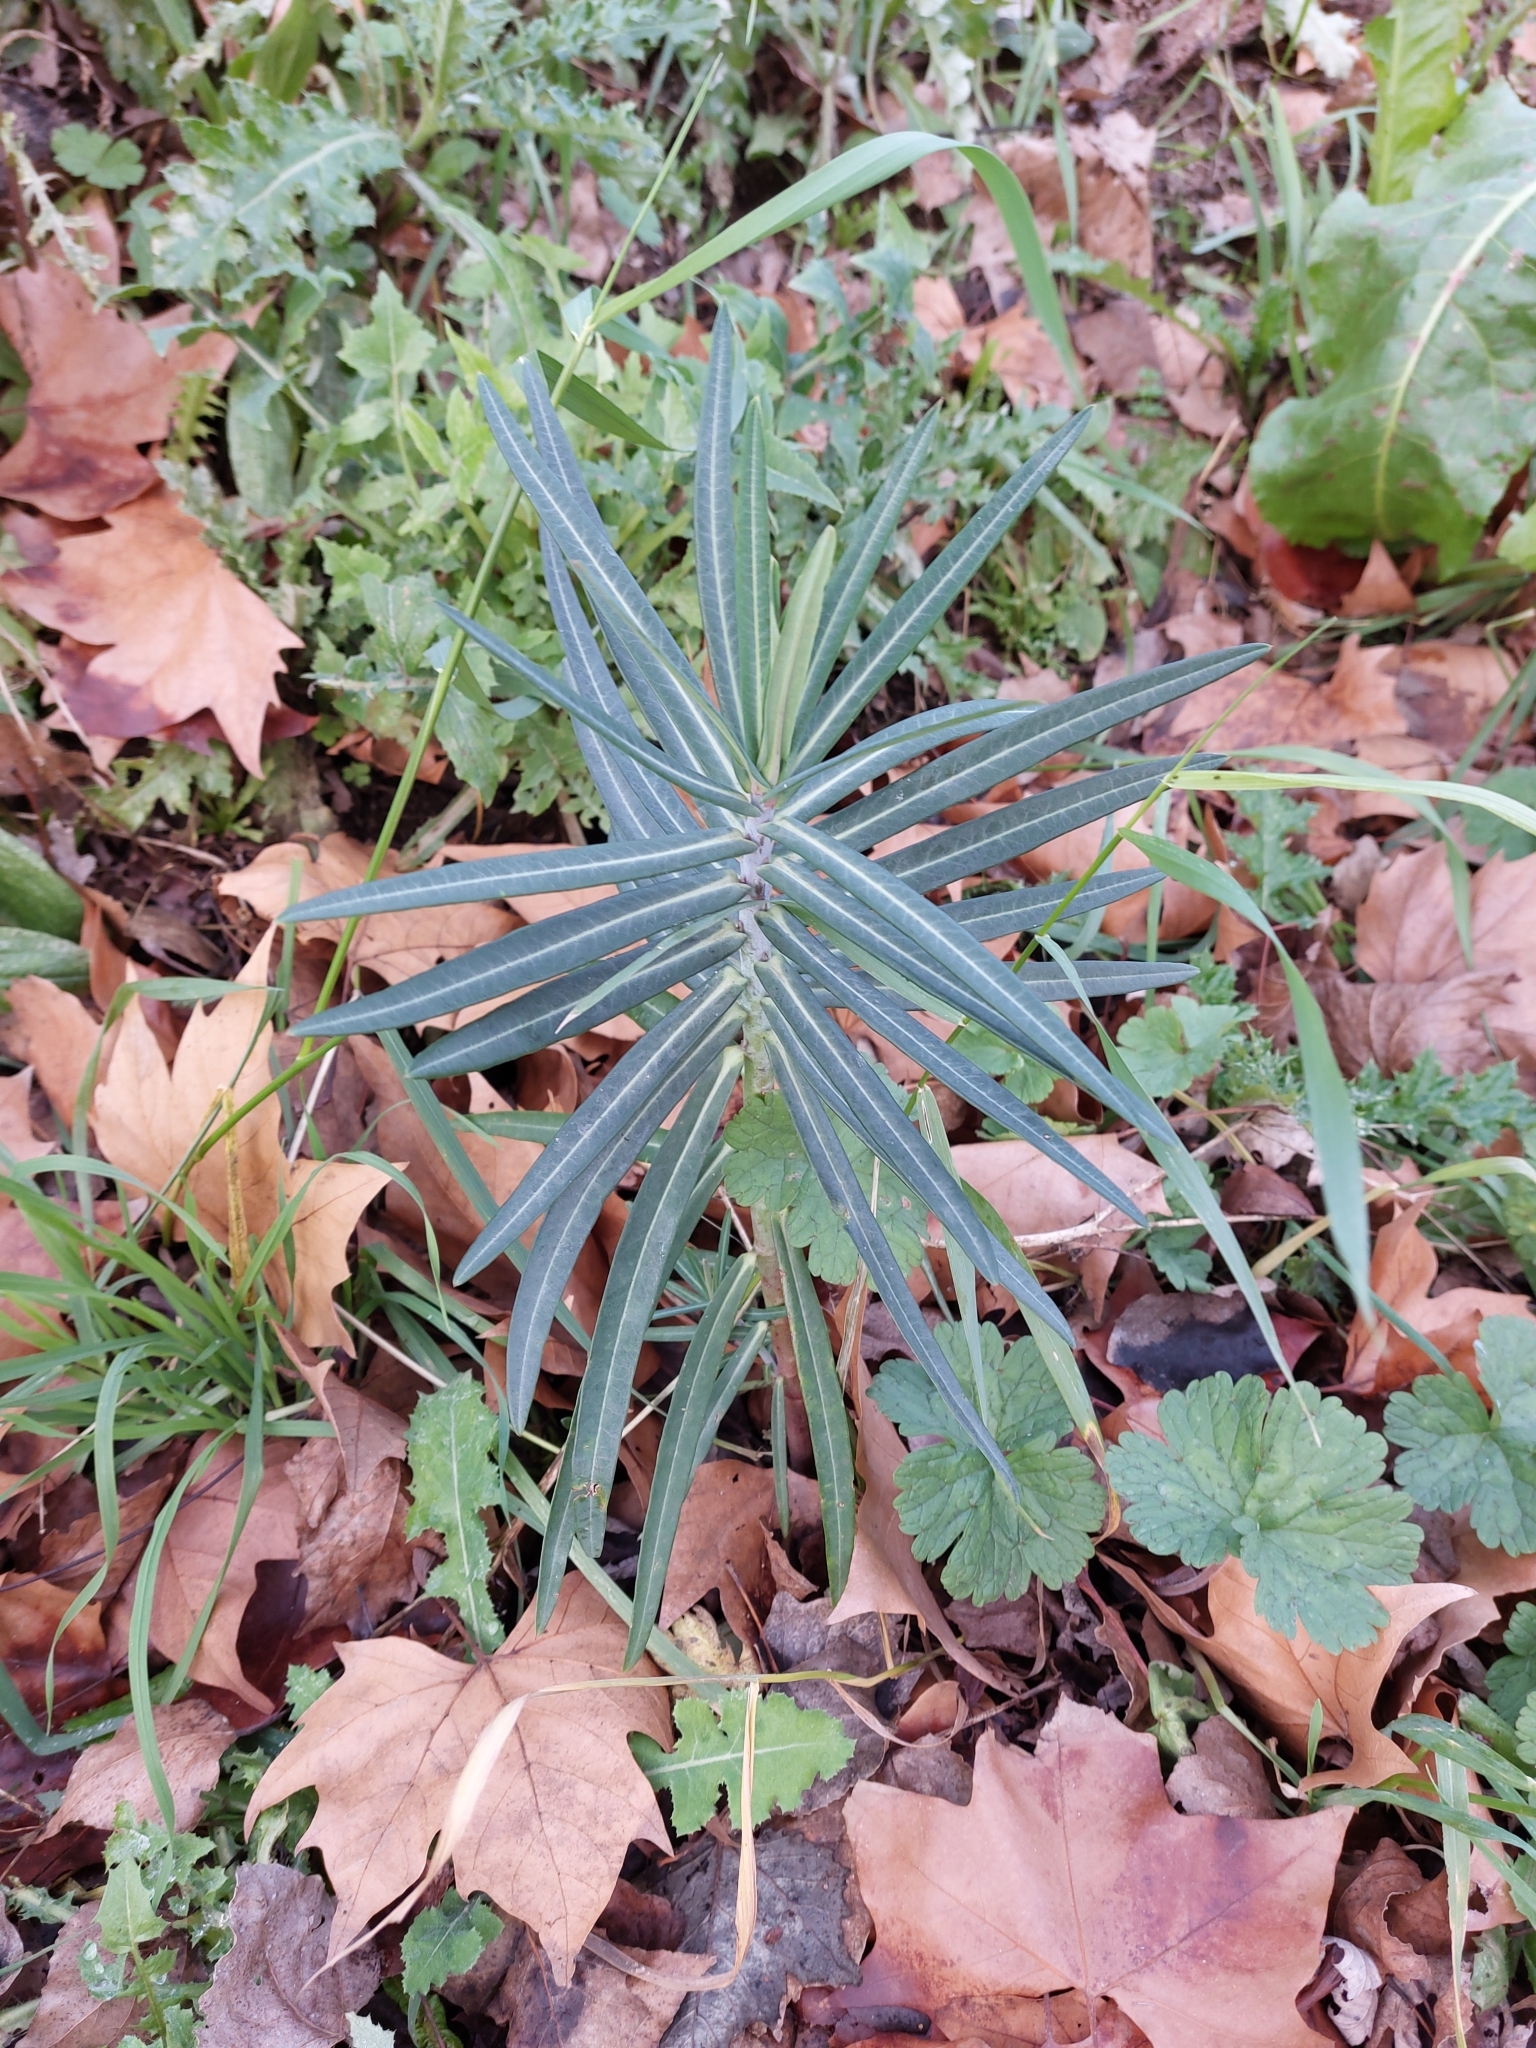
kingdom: Plantae
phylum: Tracheophyta
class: Magnoliopsida
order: Malpighiales
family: Euphorbiaceae
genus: Euphorbia
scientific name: Euphorbia lathyris
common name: Caper spurge
